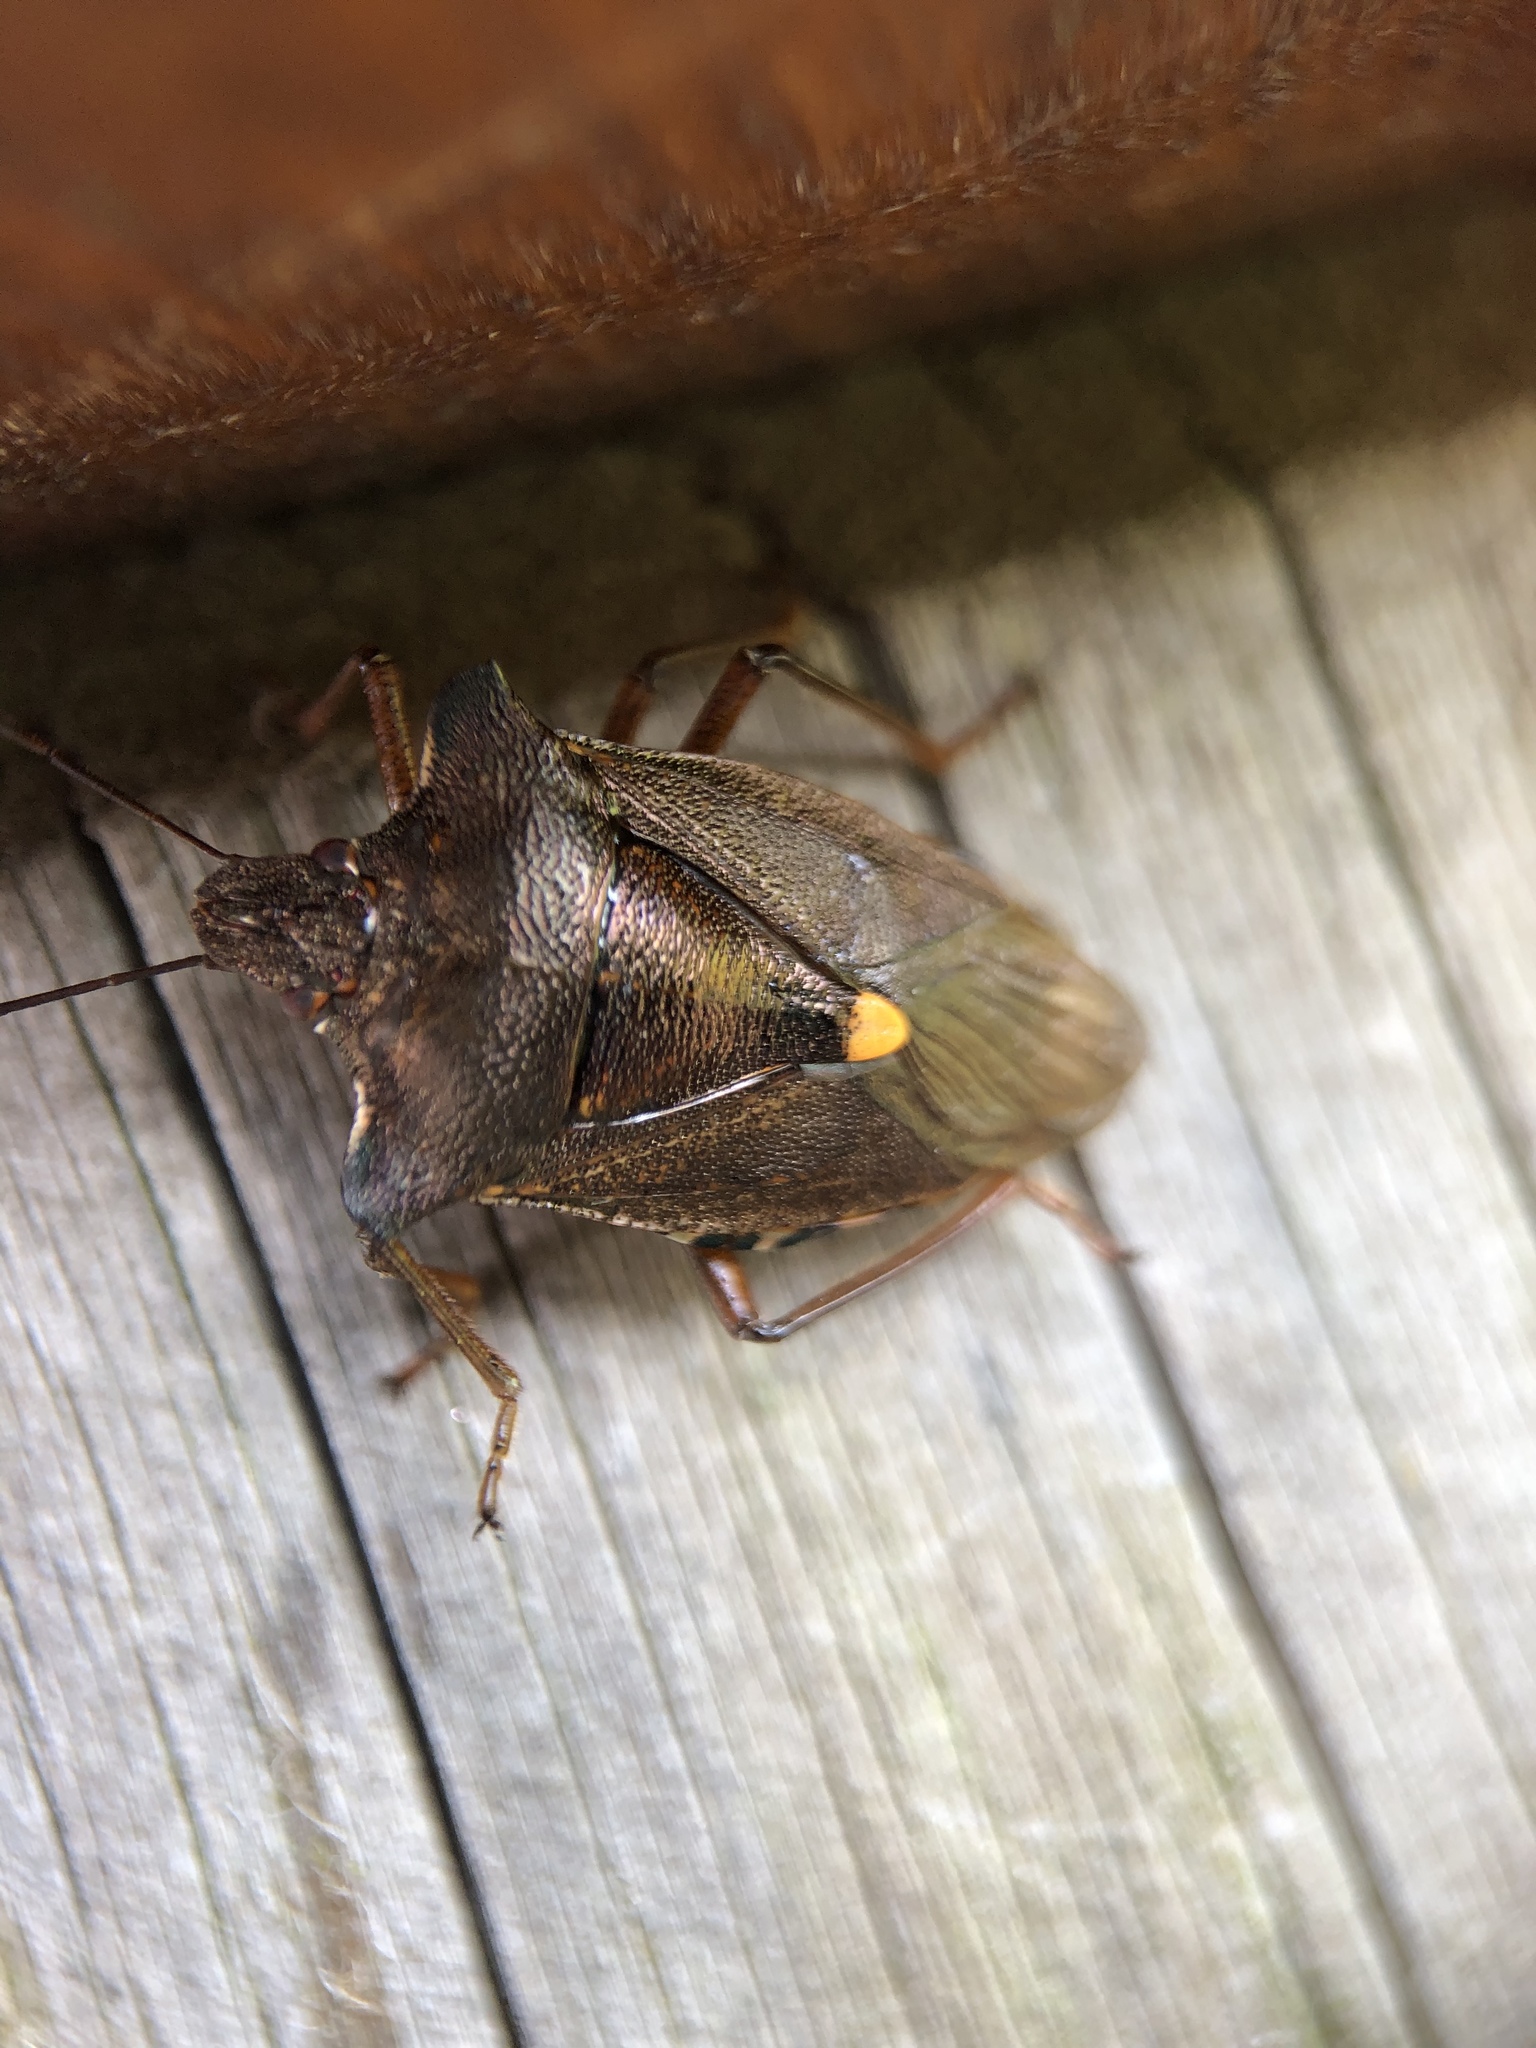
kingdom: Animalia
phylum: Arthropoda
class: Insecta
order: Hemiptera
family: Pentatomidae
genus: Pentatoma
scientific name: Pentatoma rufipes
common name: Forest bug
